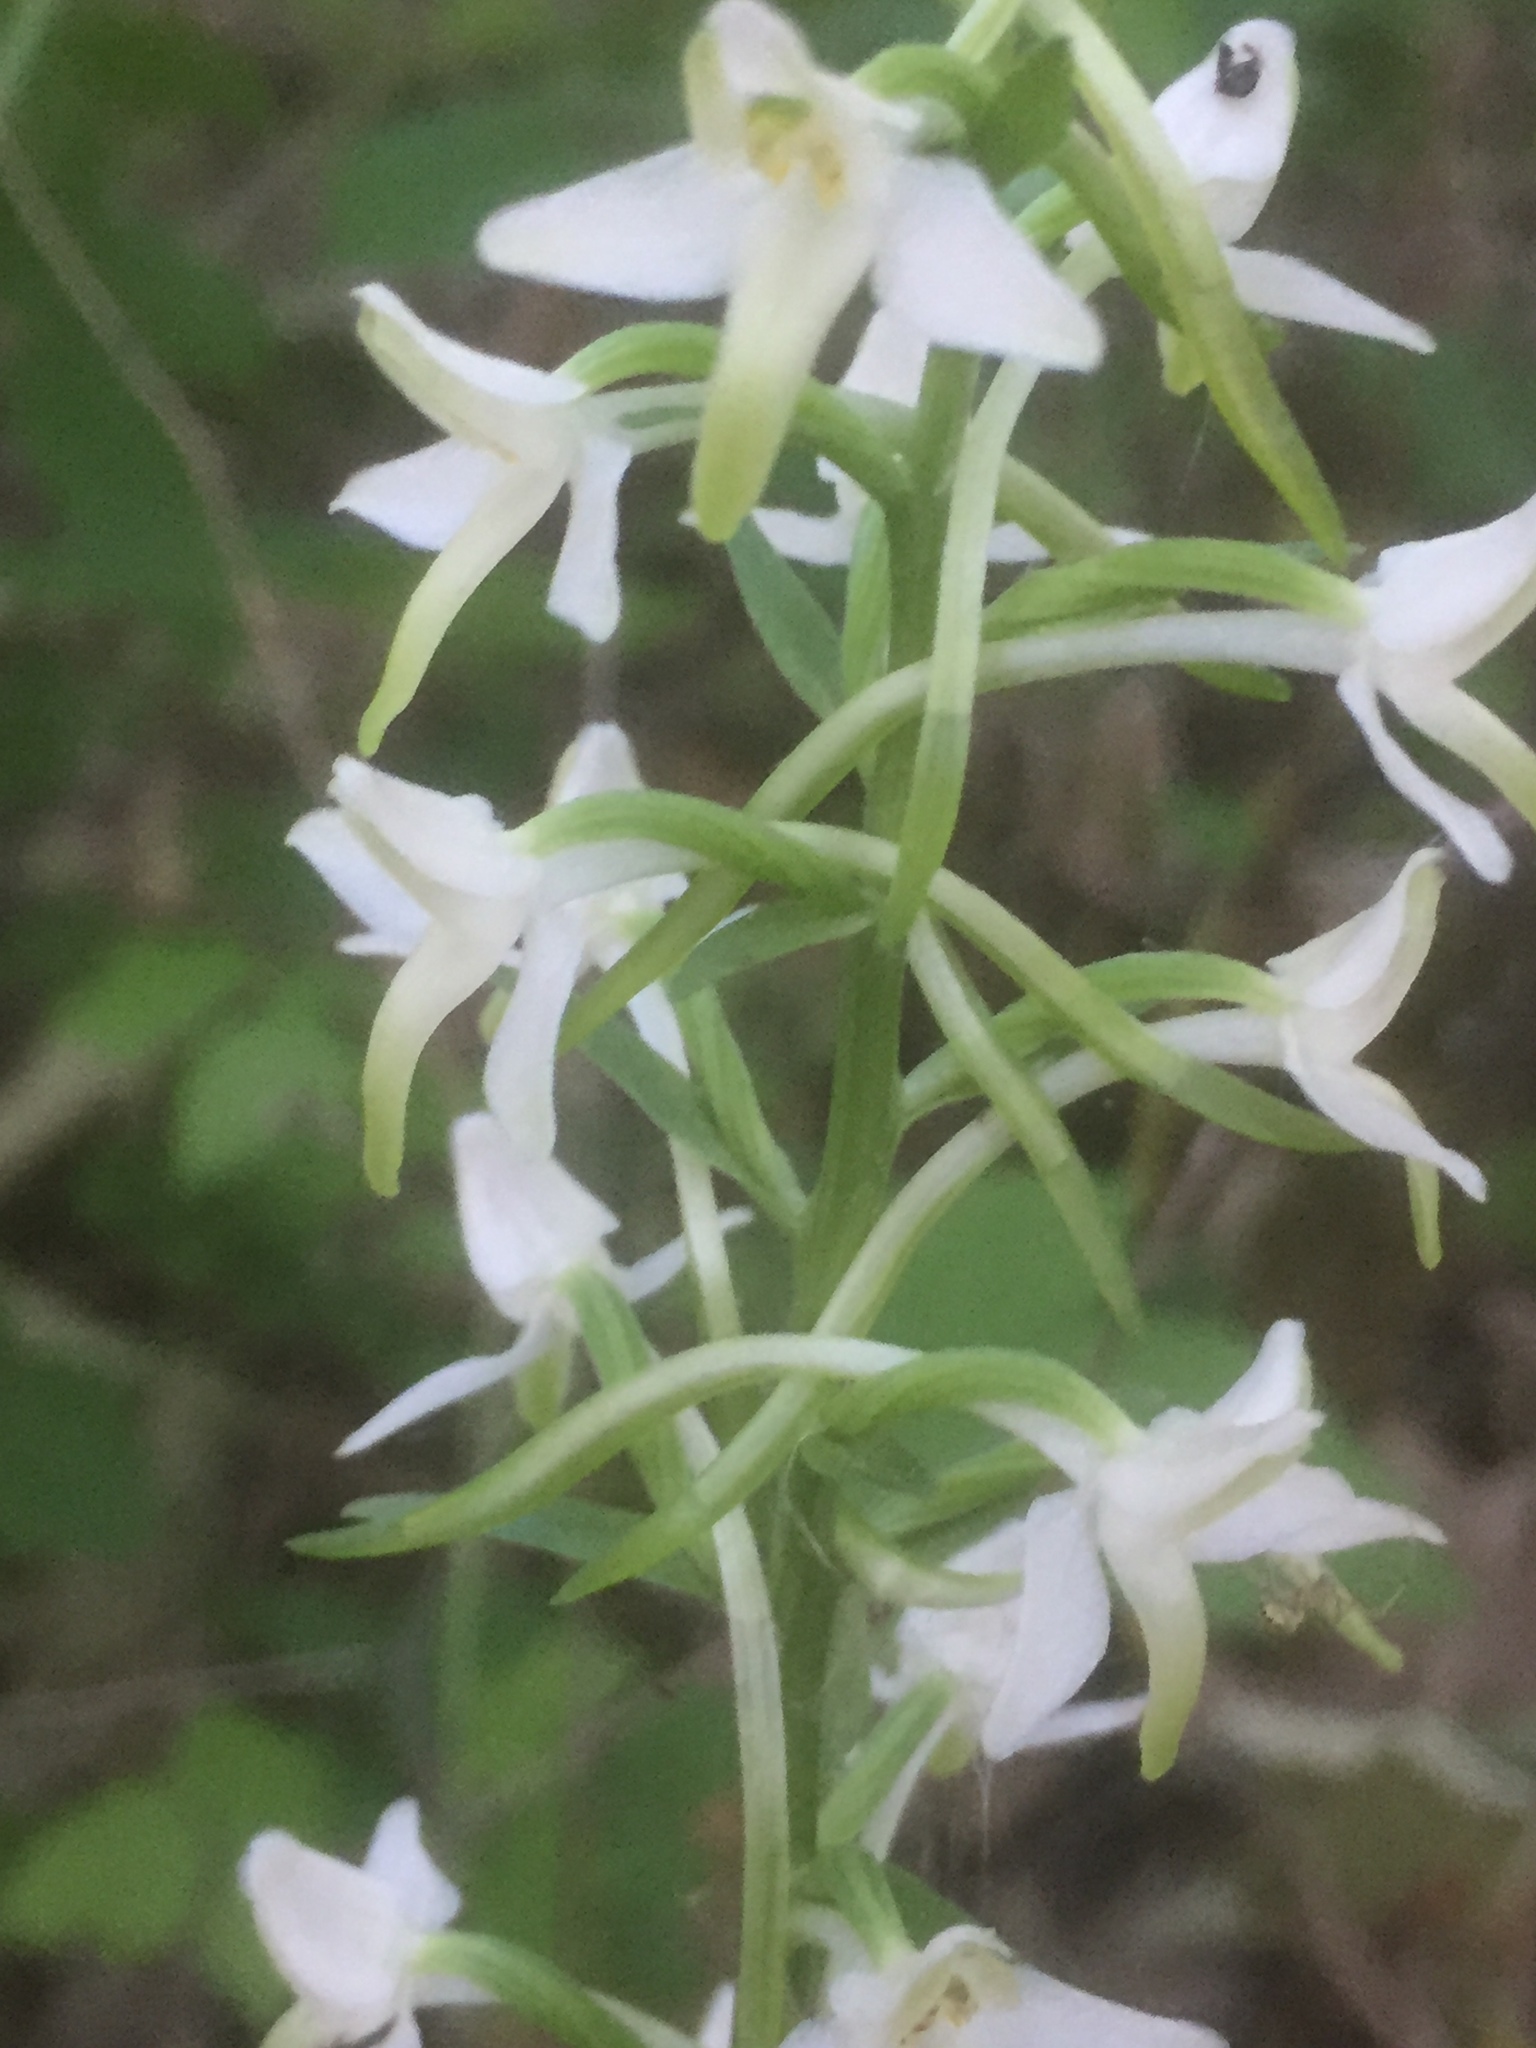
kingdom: Plantae
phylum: Tracheophyta
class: Liliopsida
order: Asparagales
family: Orchidaceae
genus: Platanthera
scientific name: Platanthera bifolia
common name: Lesser butterfly-orchid
